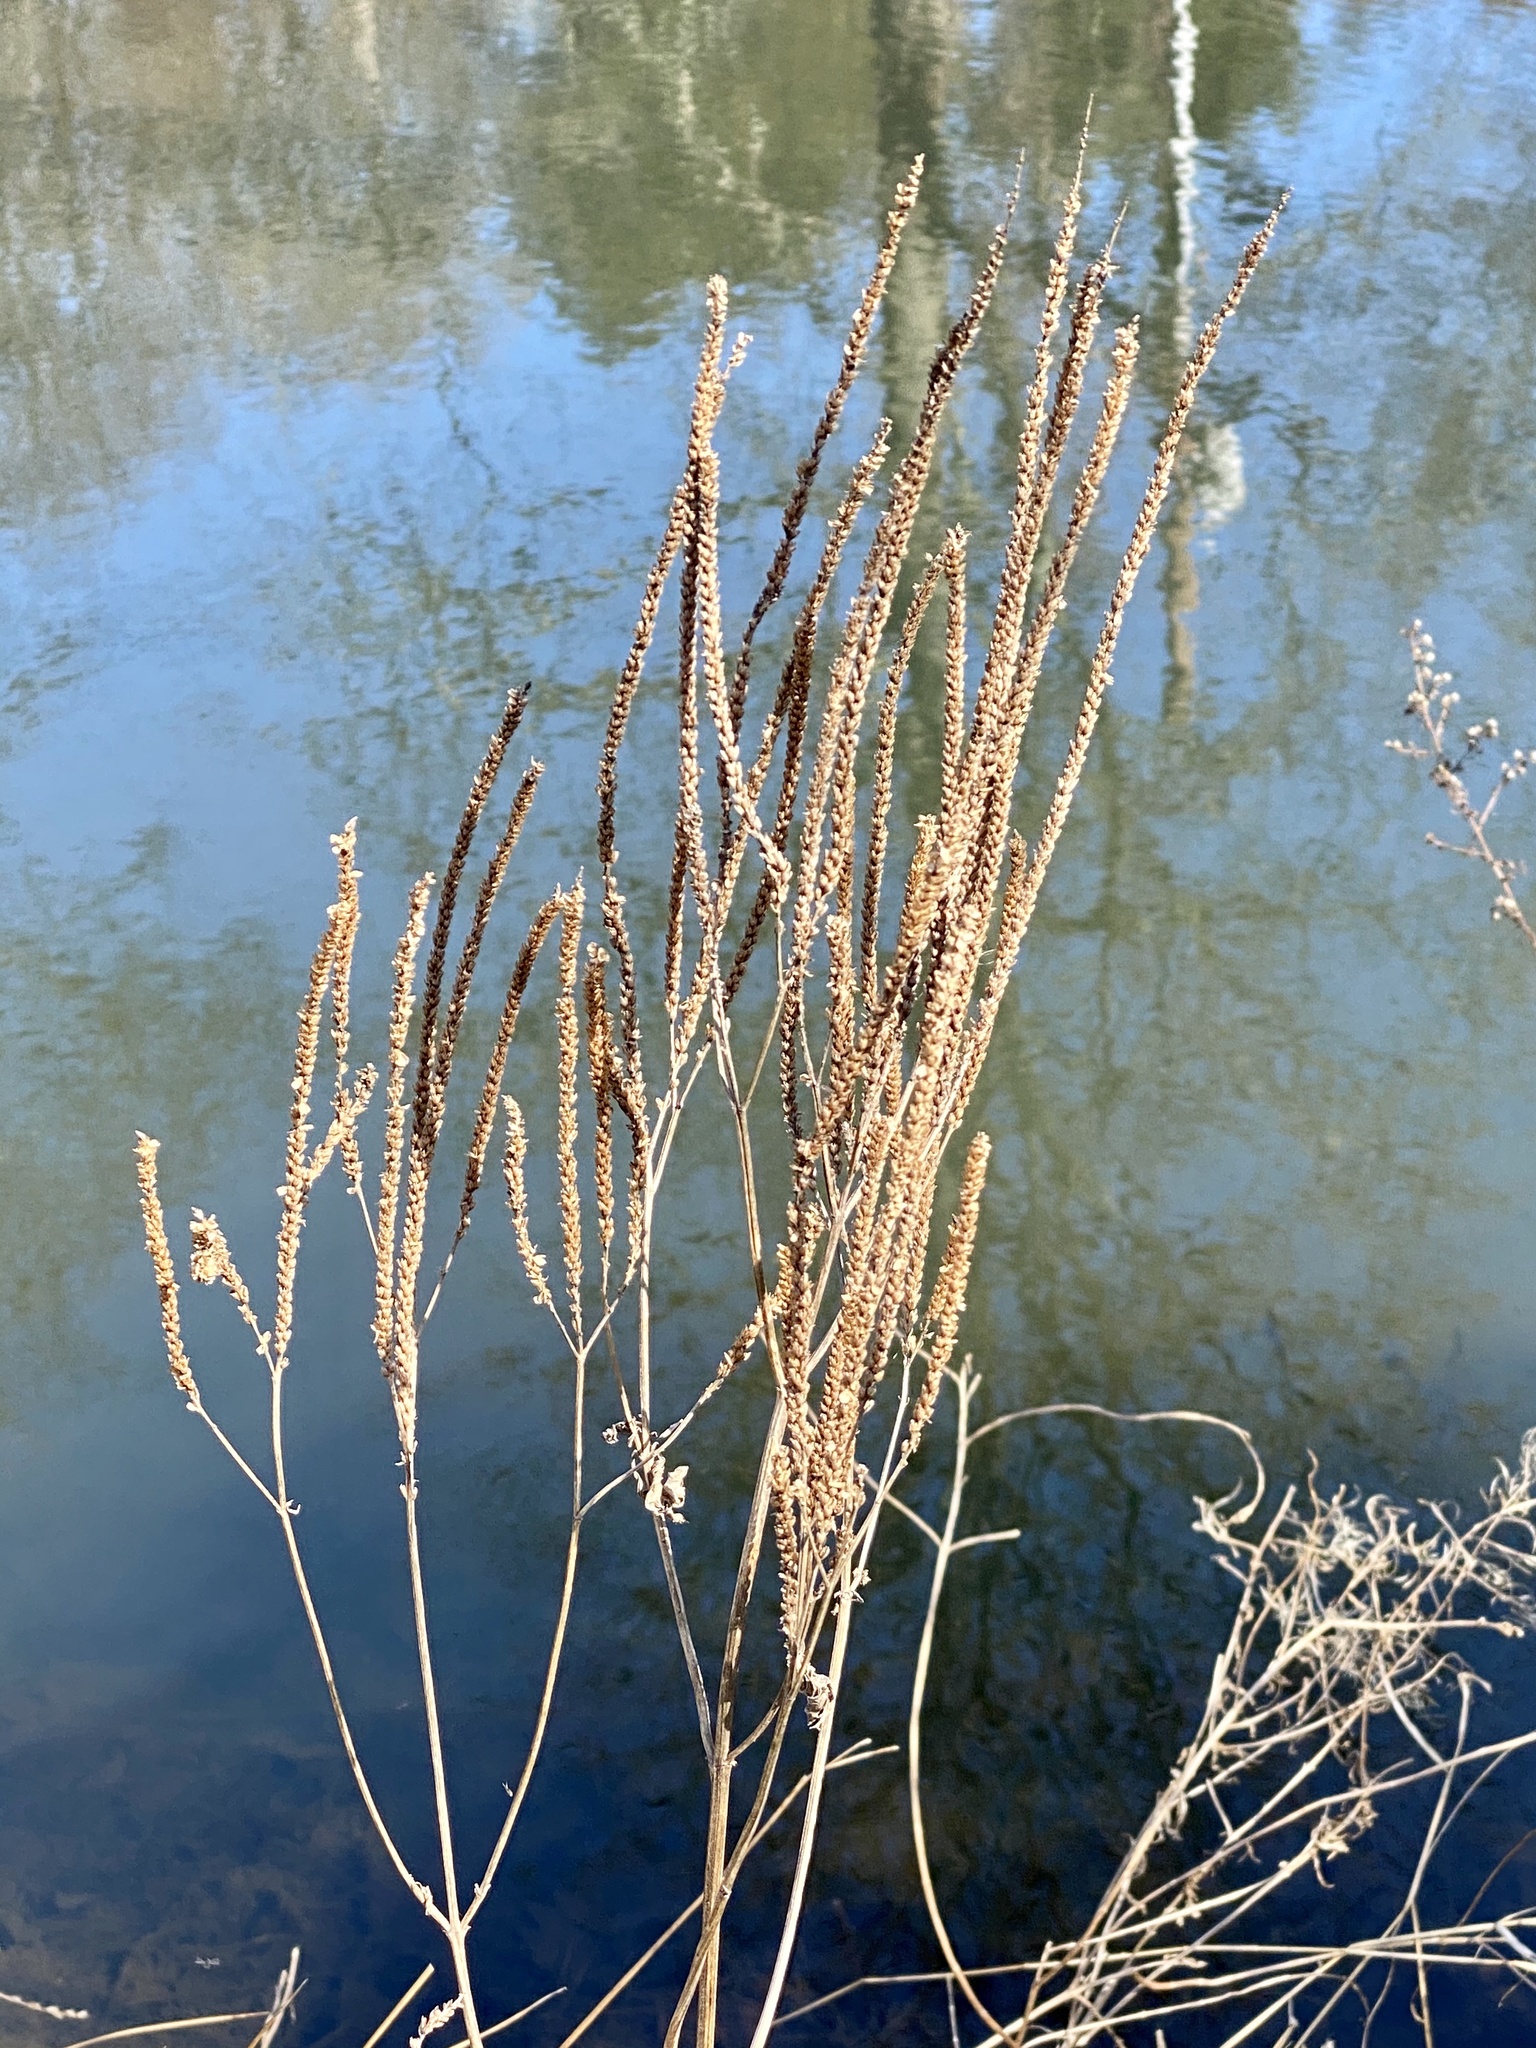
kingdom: Plantae
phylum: Tracheophyta
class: Magnoliopsida
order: Lamiales
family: Verbenaceae
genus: Verbena
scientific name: Verbena hastata
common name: American blue vervain
